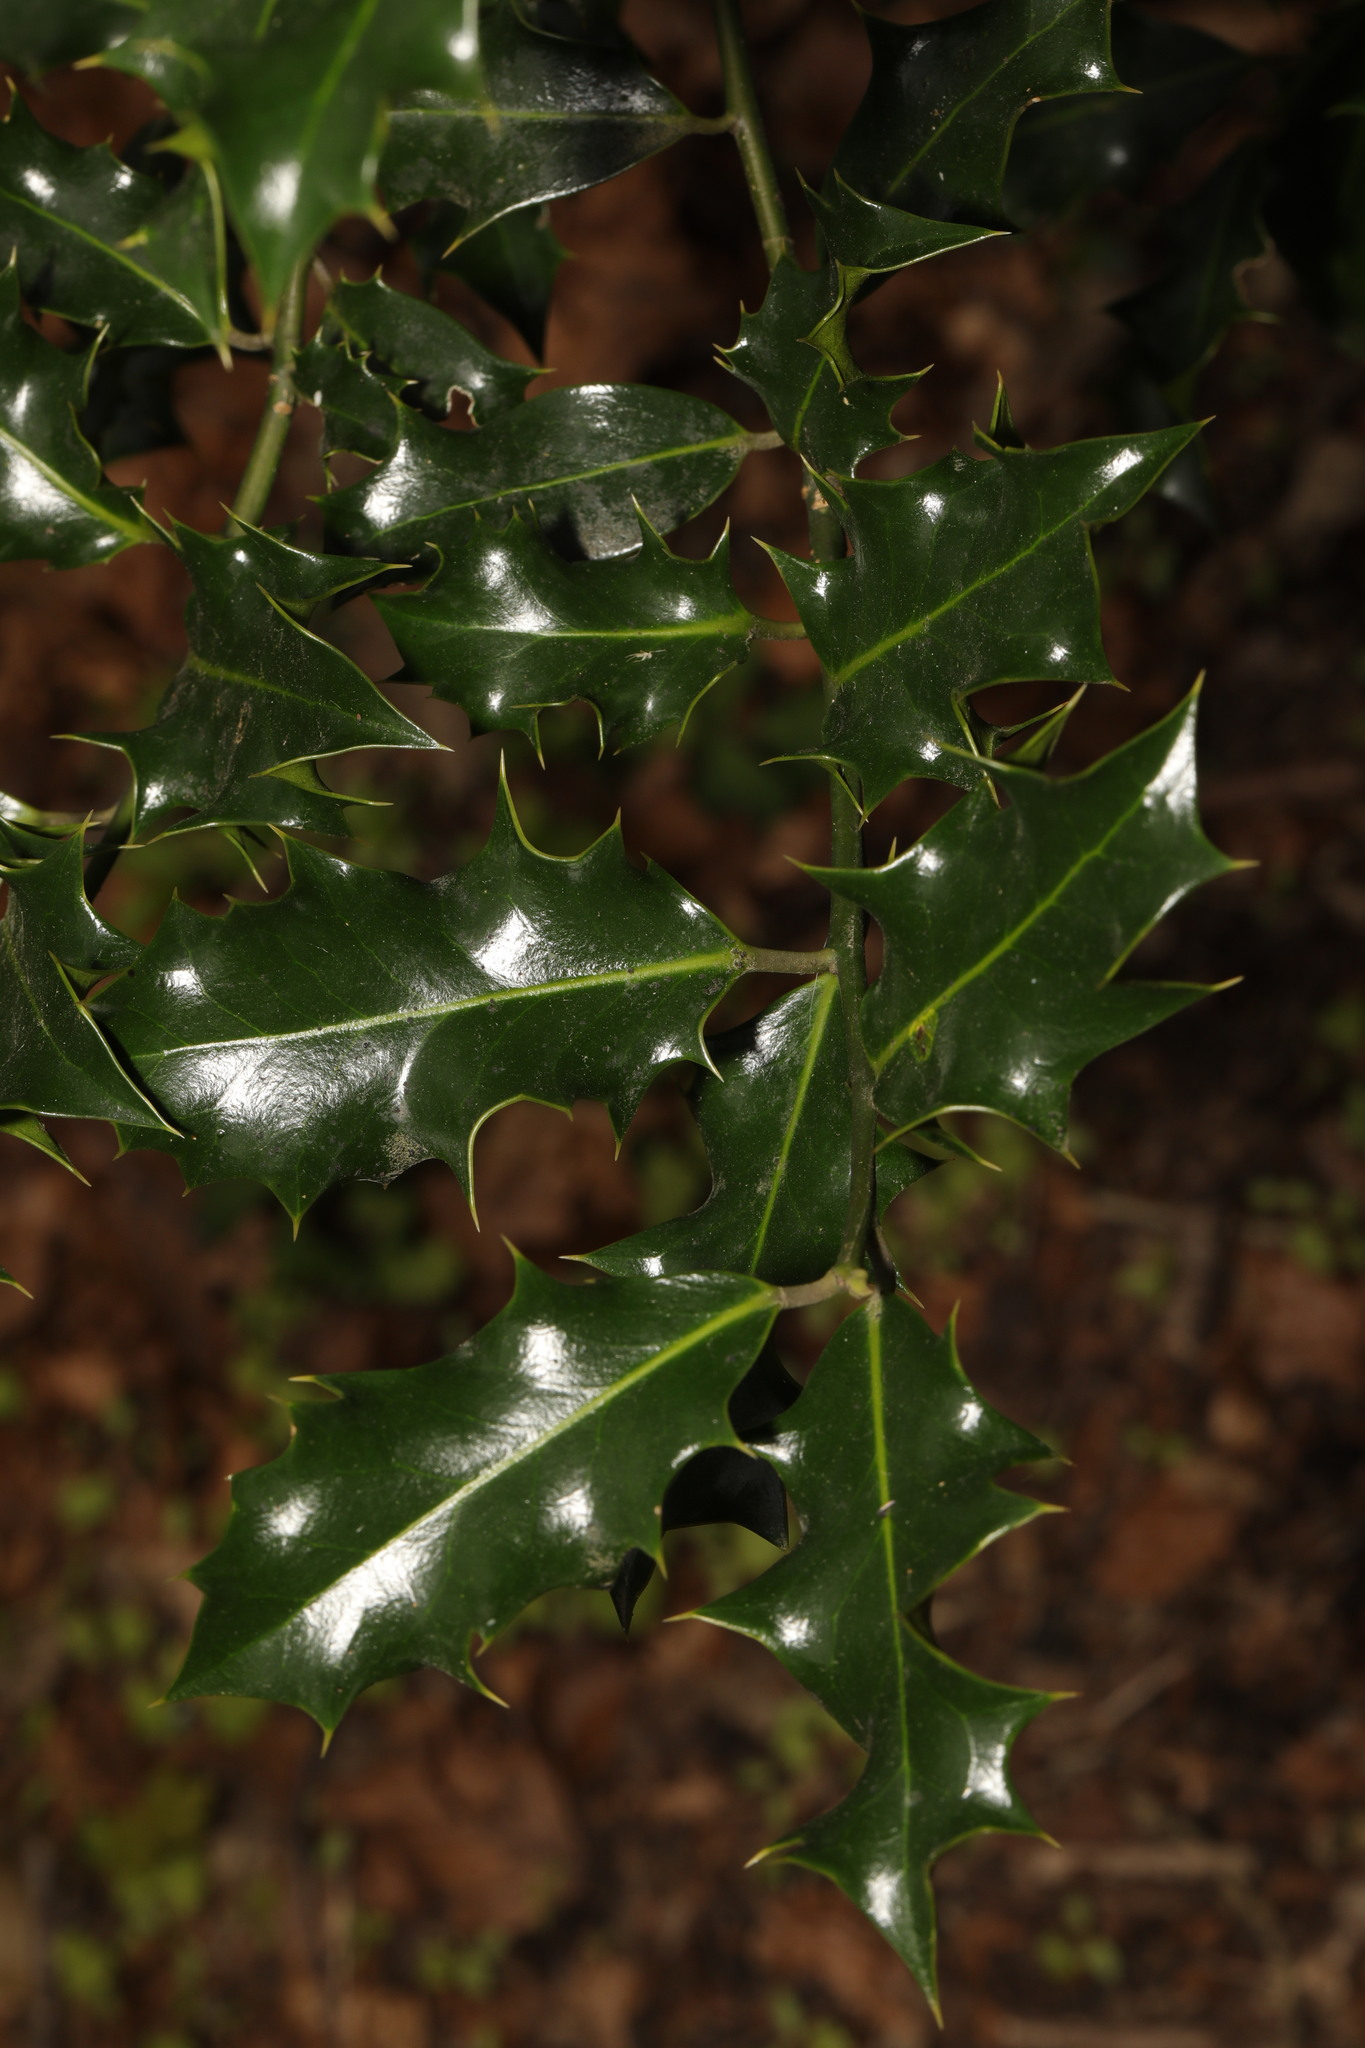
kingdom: Plantae
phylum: Tracheophyta
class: Magnoliopsida
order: Aquifoliales
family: Aquifoliaceae
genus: Ilex
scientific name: Ilex aquifolium
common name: English holly
